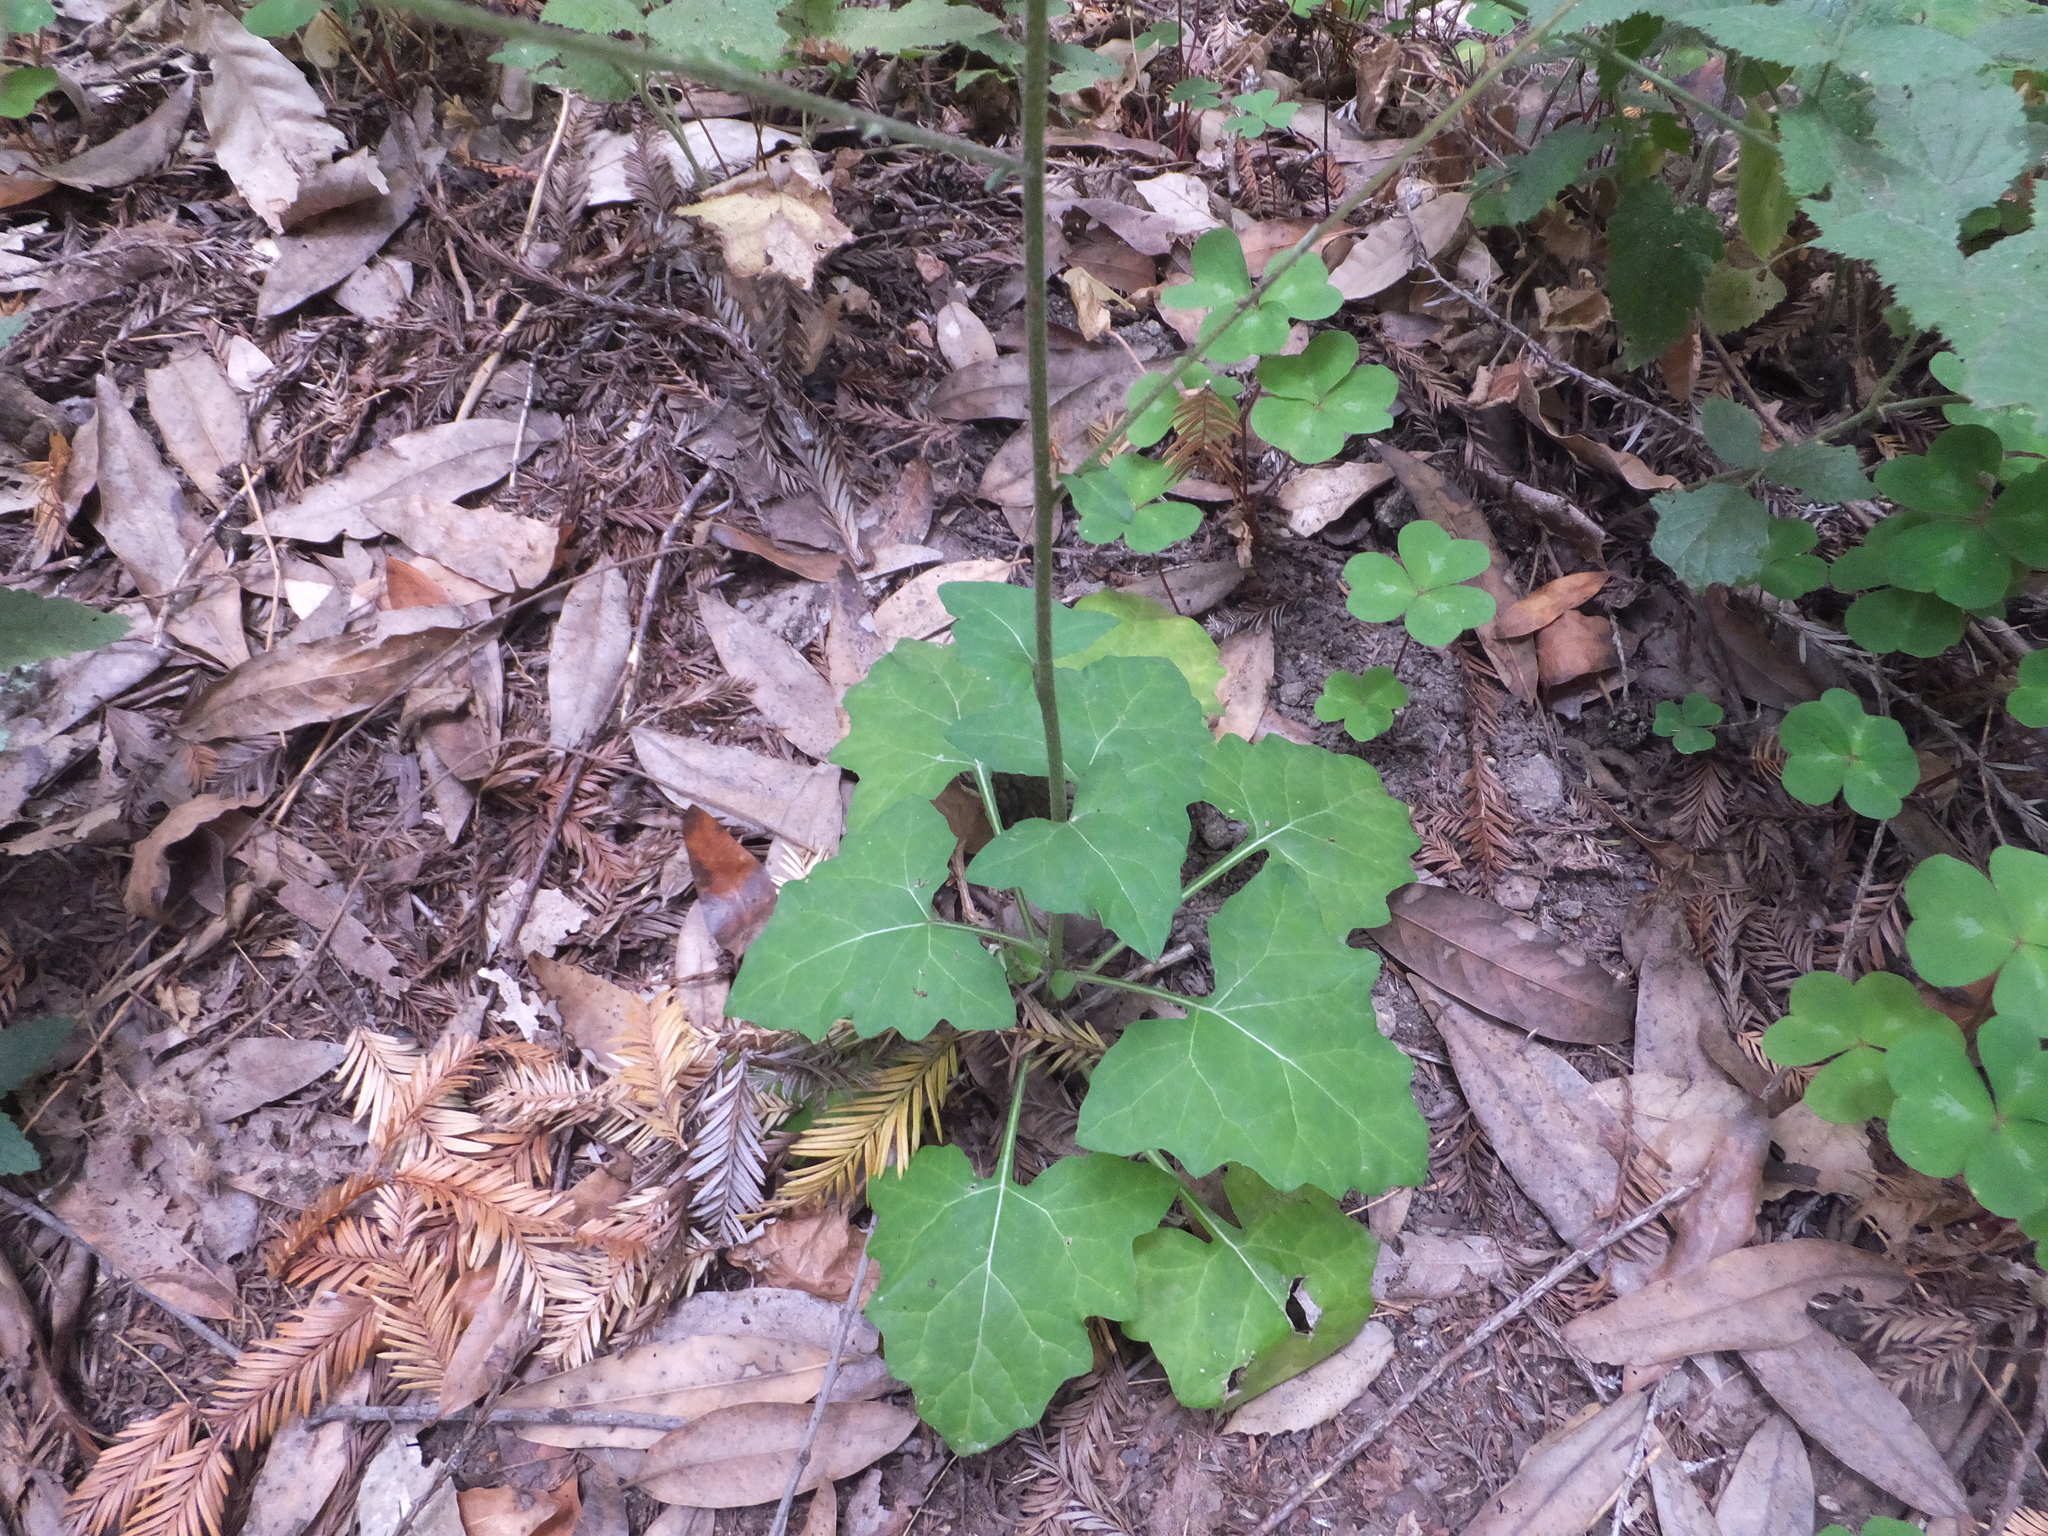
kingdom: Plantae
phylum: Tracheophyta
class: Magnoliopsida
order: Asterales
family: Asteraceae
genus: Adenocaulon
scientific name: Adenocaulon bicolor
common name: Trailplant
